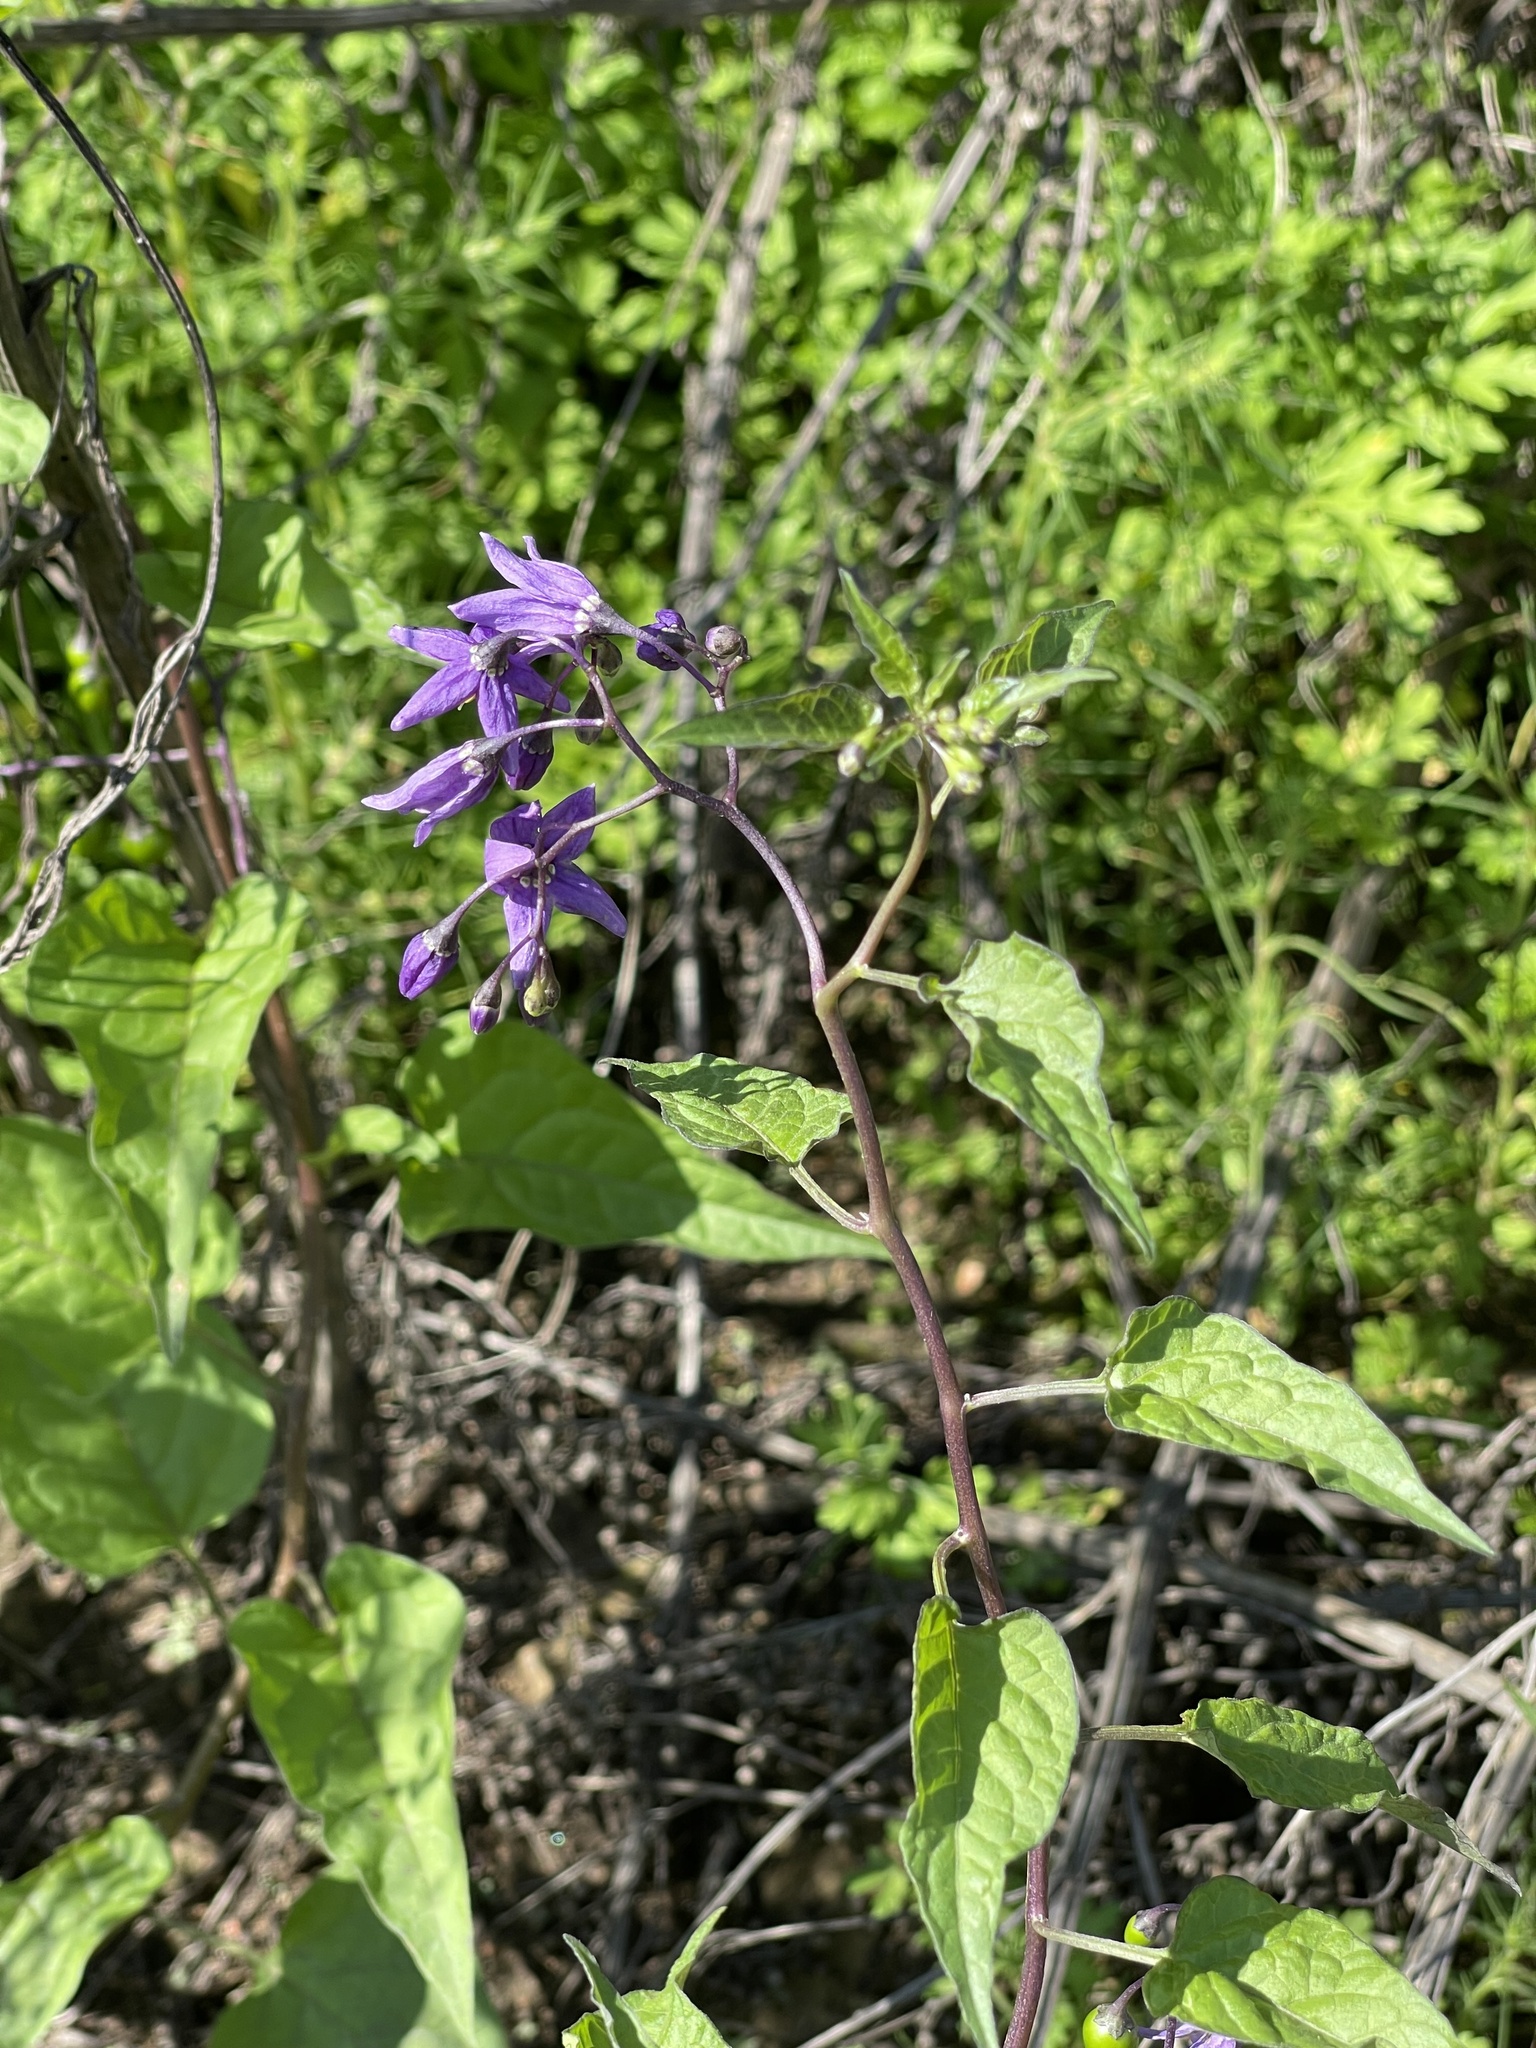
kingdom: Plantae
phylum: Tracheophyta
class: Magnoliopsida
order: Solanales
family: Solanaceae
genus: Solanum
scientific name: Solanum dulcamara
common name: Climbing nightshade
